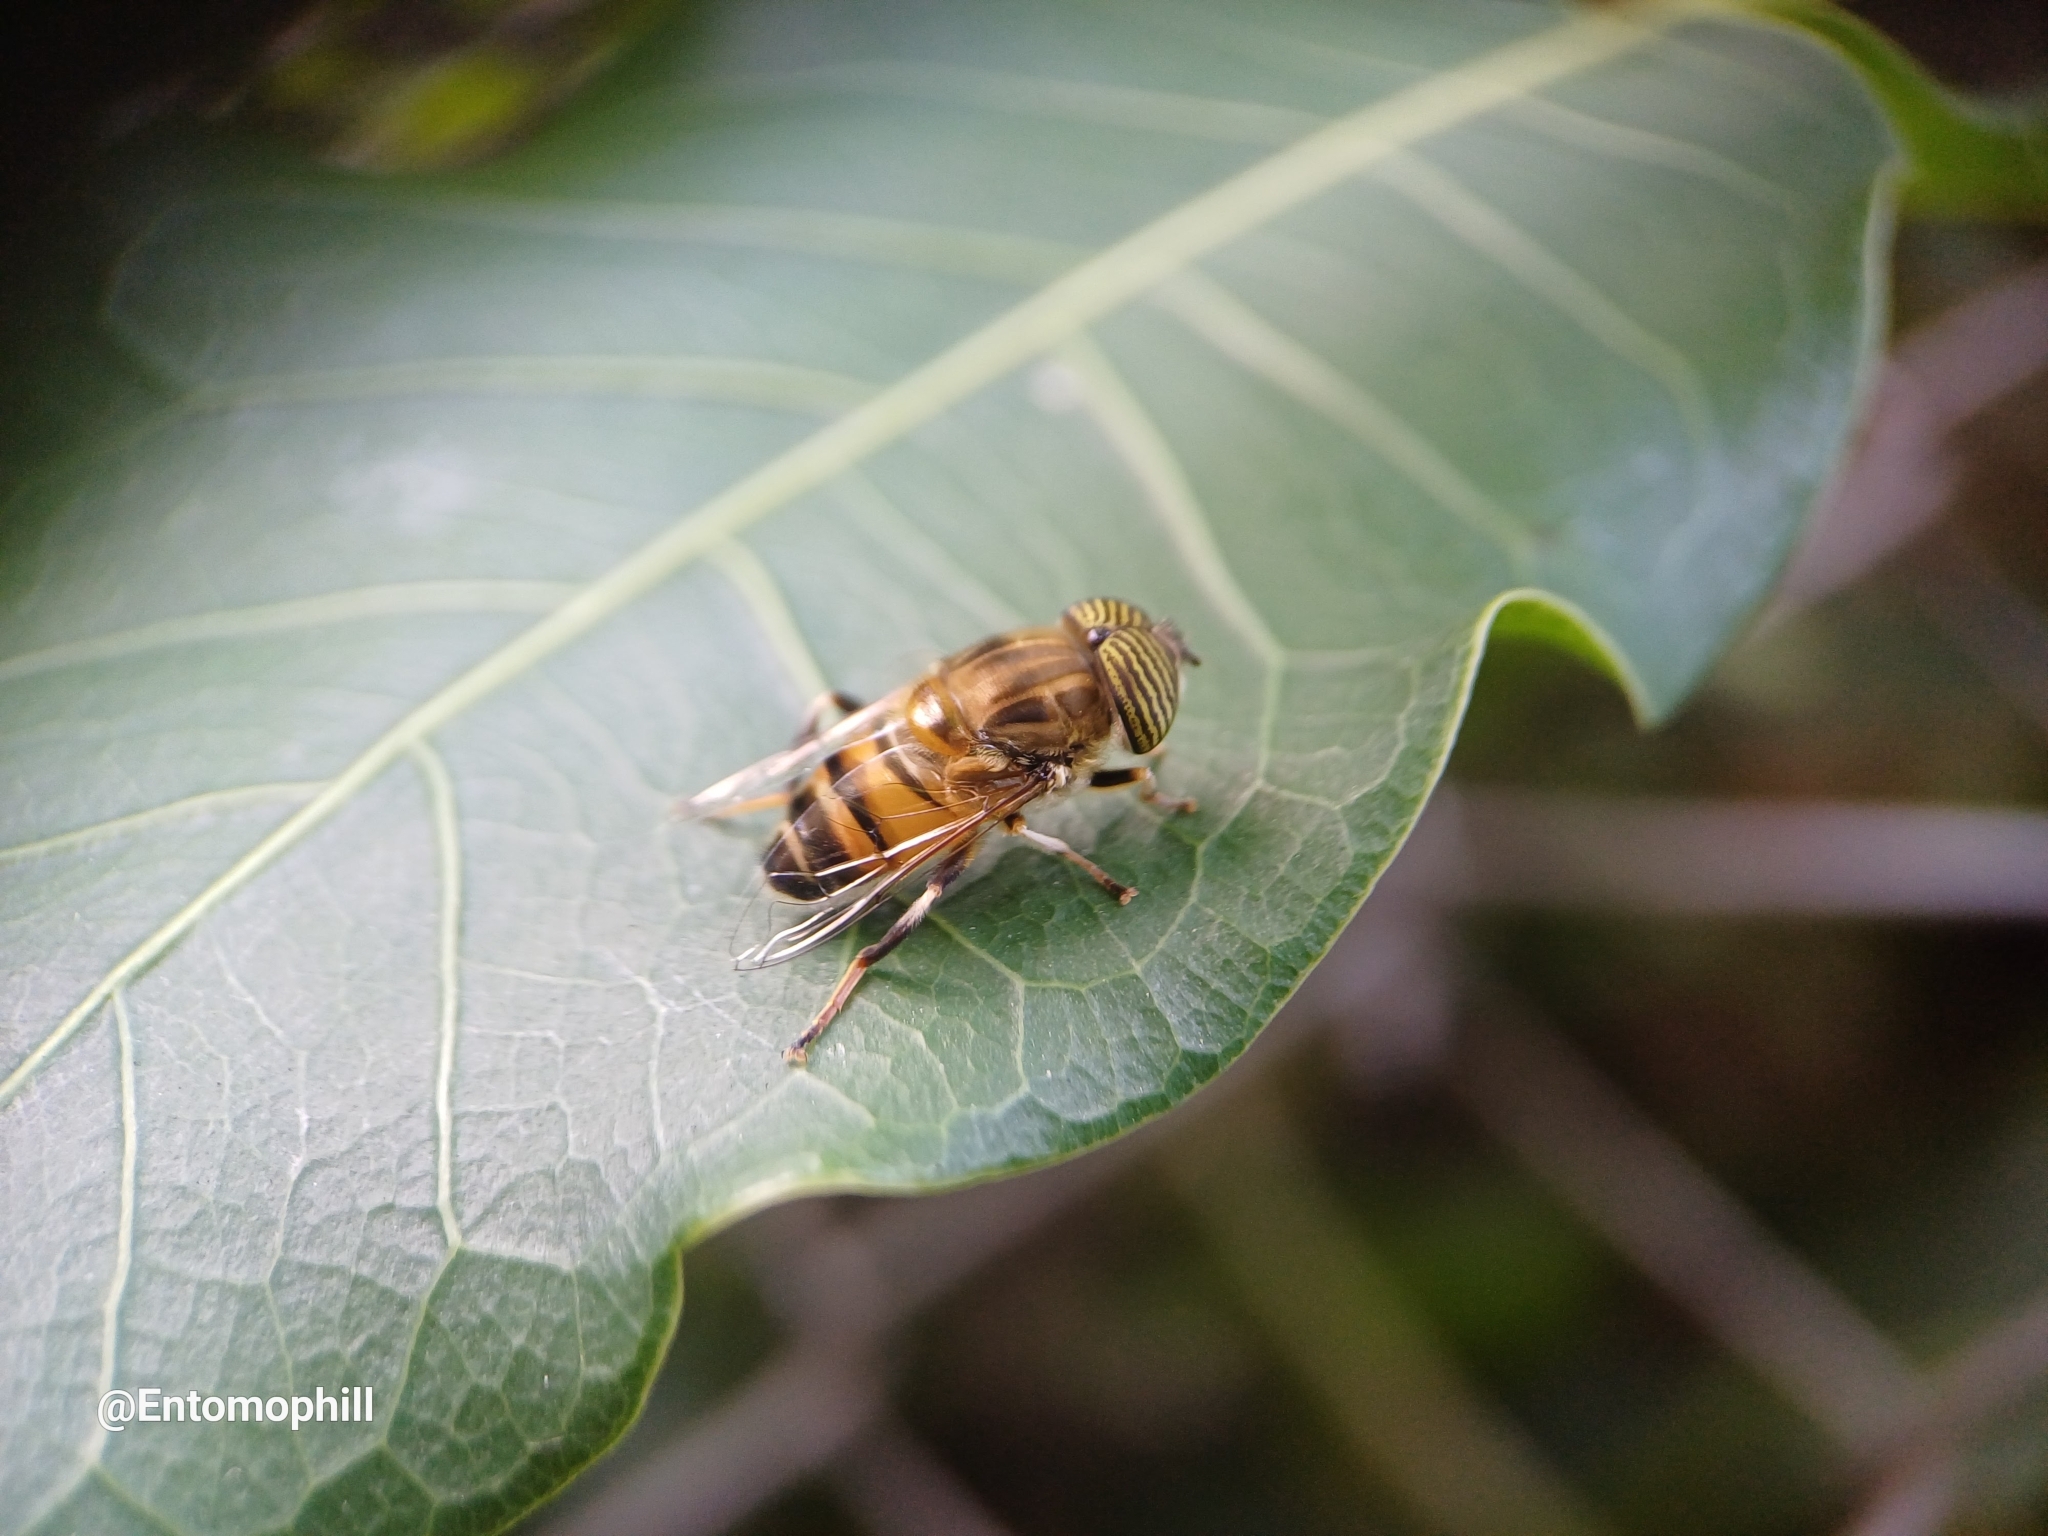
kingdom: Animalia
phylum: Arthropoda
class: Insecta
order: Diptera
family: Syrphidae
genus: Eristalinus
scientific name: Eristalinus taeniops
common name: Syrphid fly
